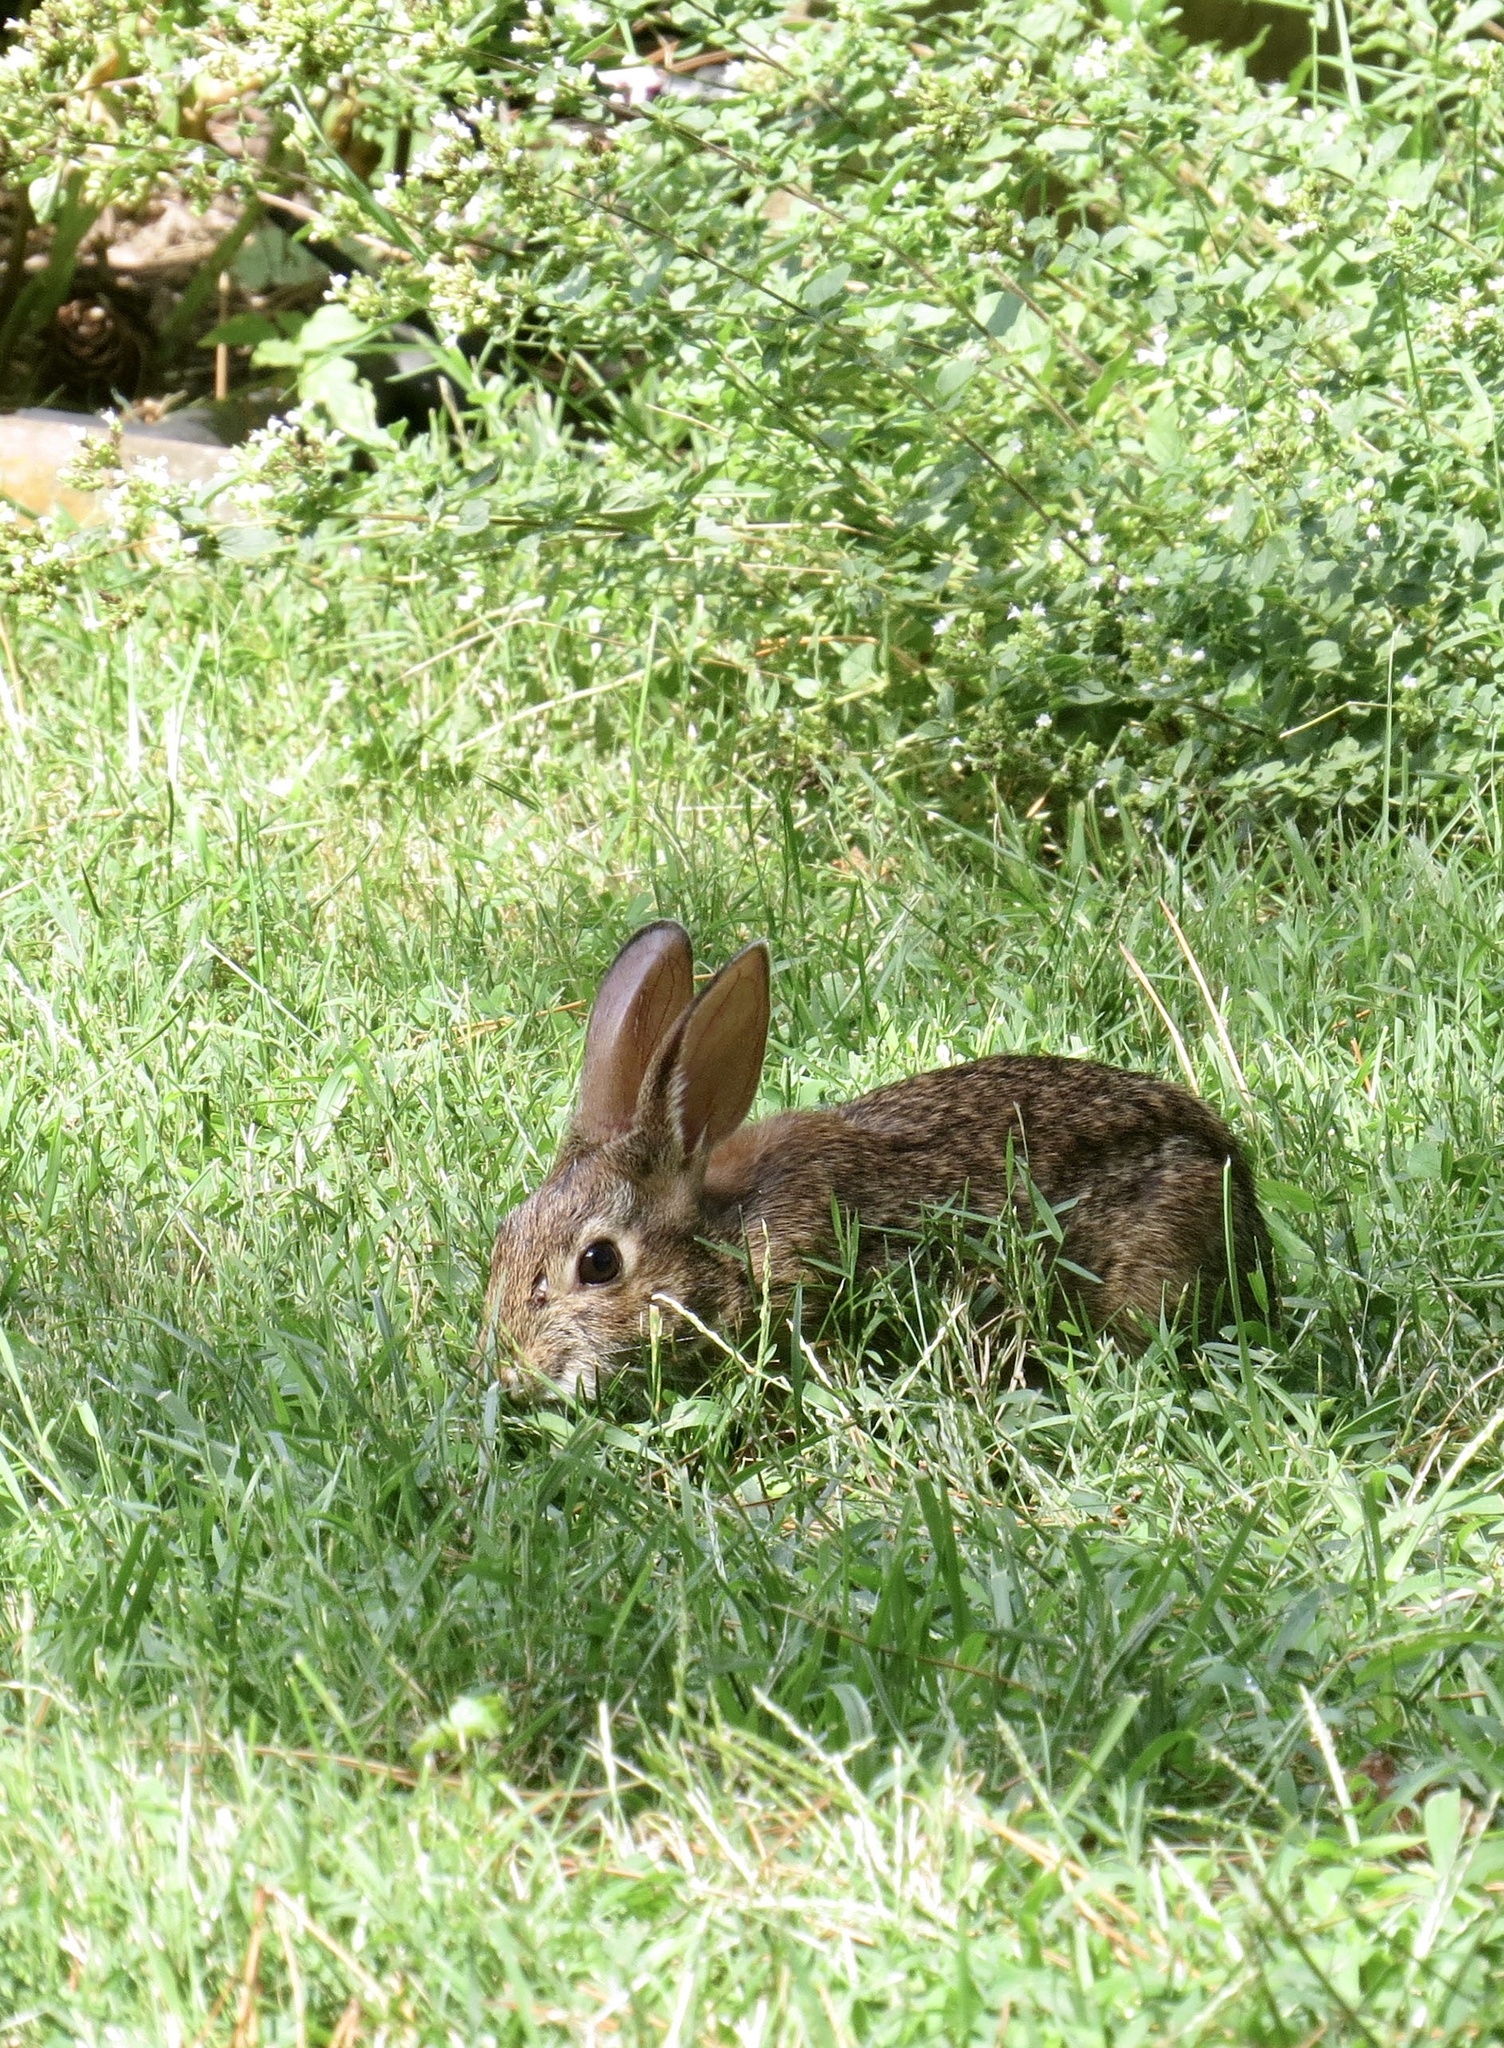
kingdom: Animalia
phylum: Chordata
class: Mammalia
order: Lagomorpha
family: Leporidae
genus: Sylvilagus
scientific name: Sylvilagus floridanus
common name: Eastern cottontail
